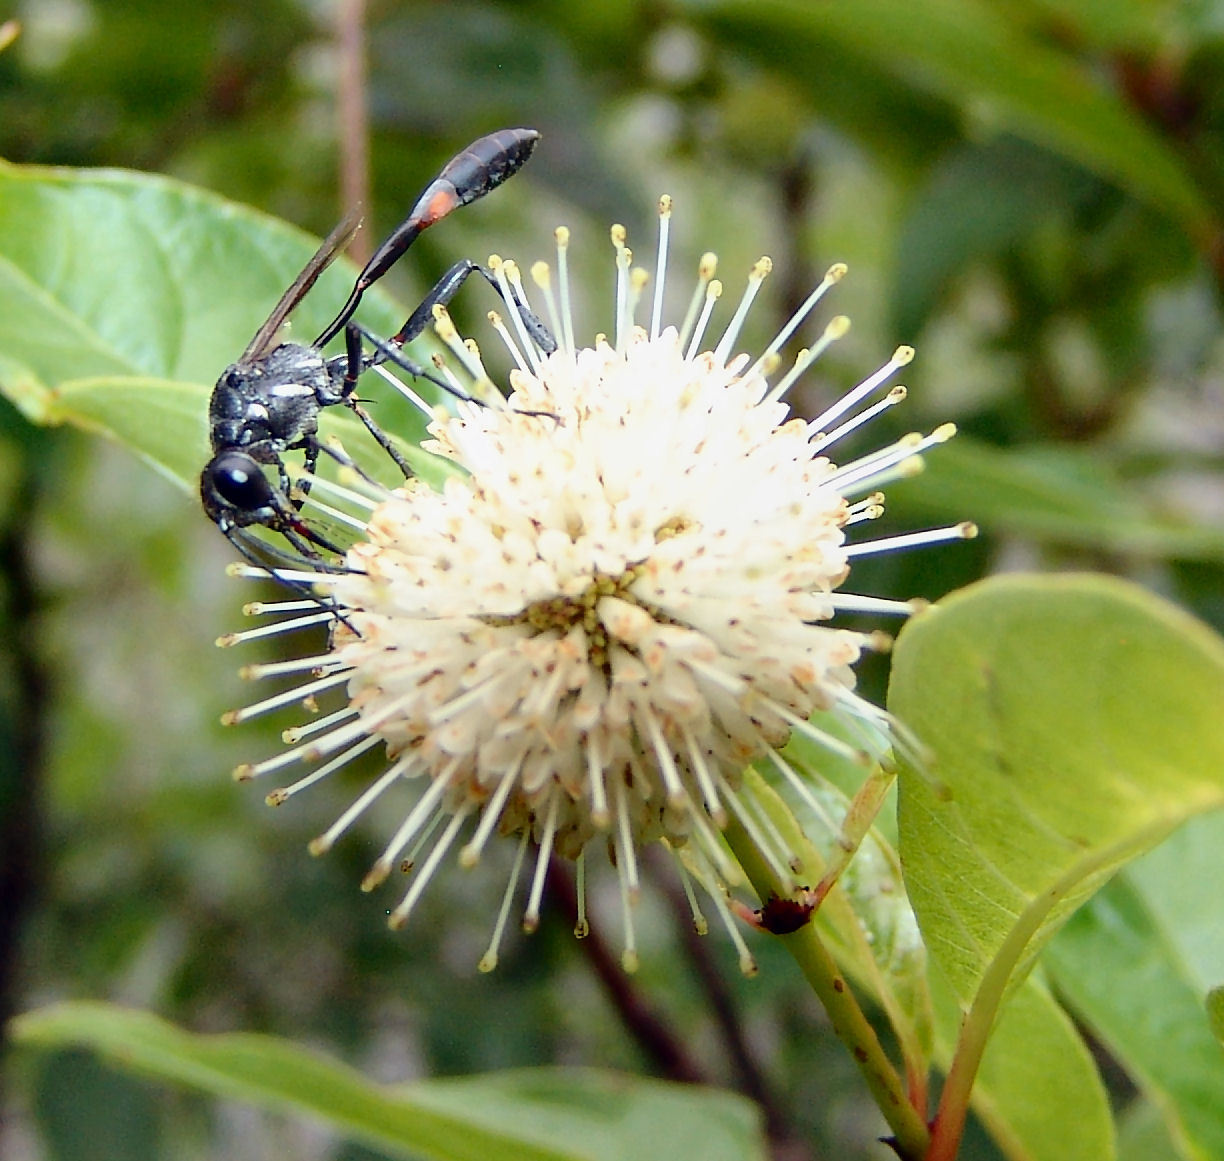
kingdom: Animalia
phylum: Arthropoda
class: Insecta
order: Hymenoptera
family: Sphecidae
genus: Ammophila
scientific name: Ammophila procera
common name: Common thread-waisted wasp
